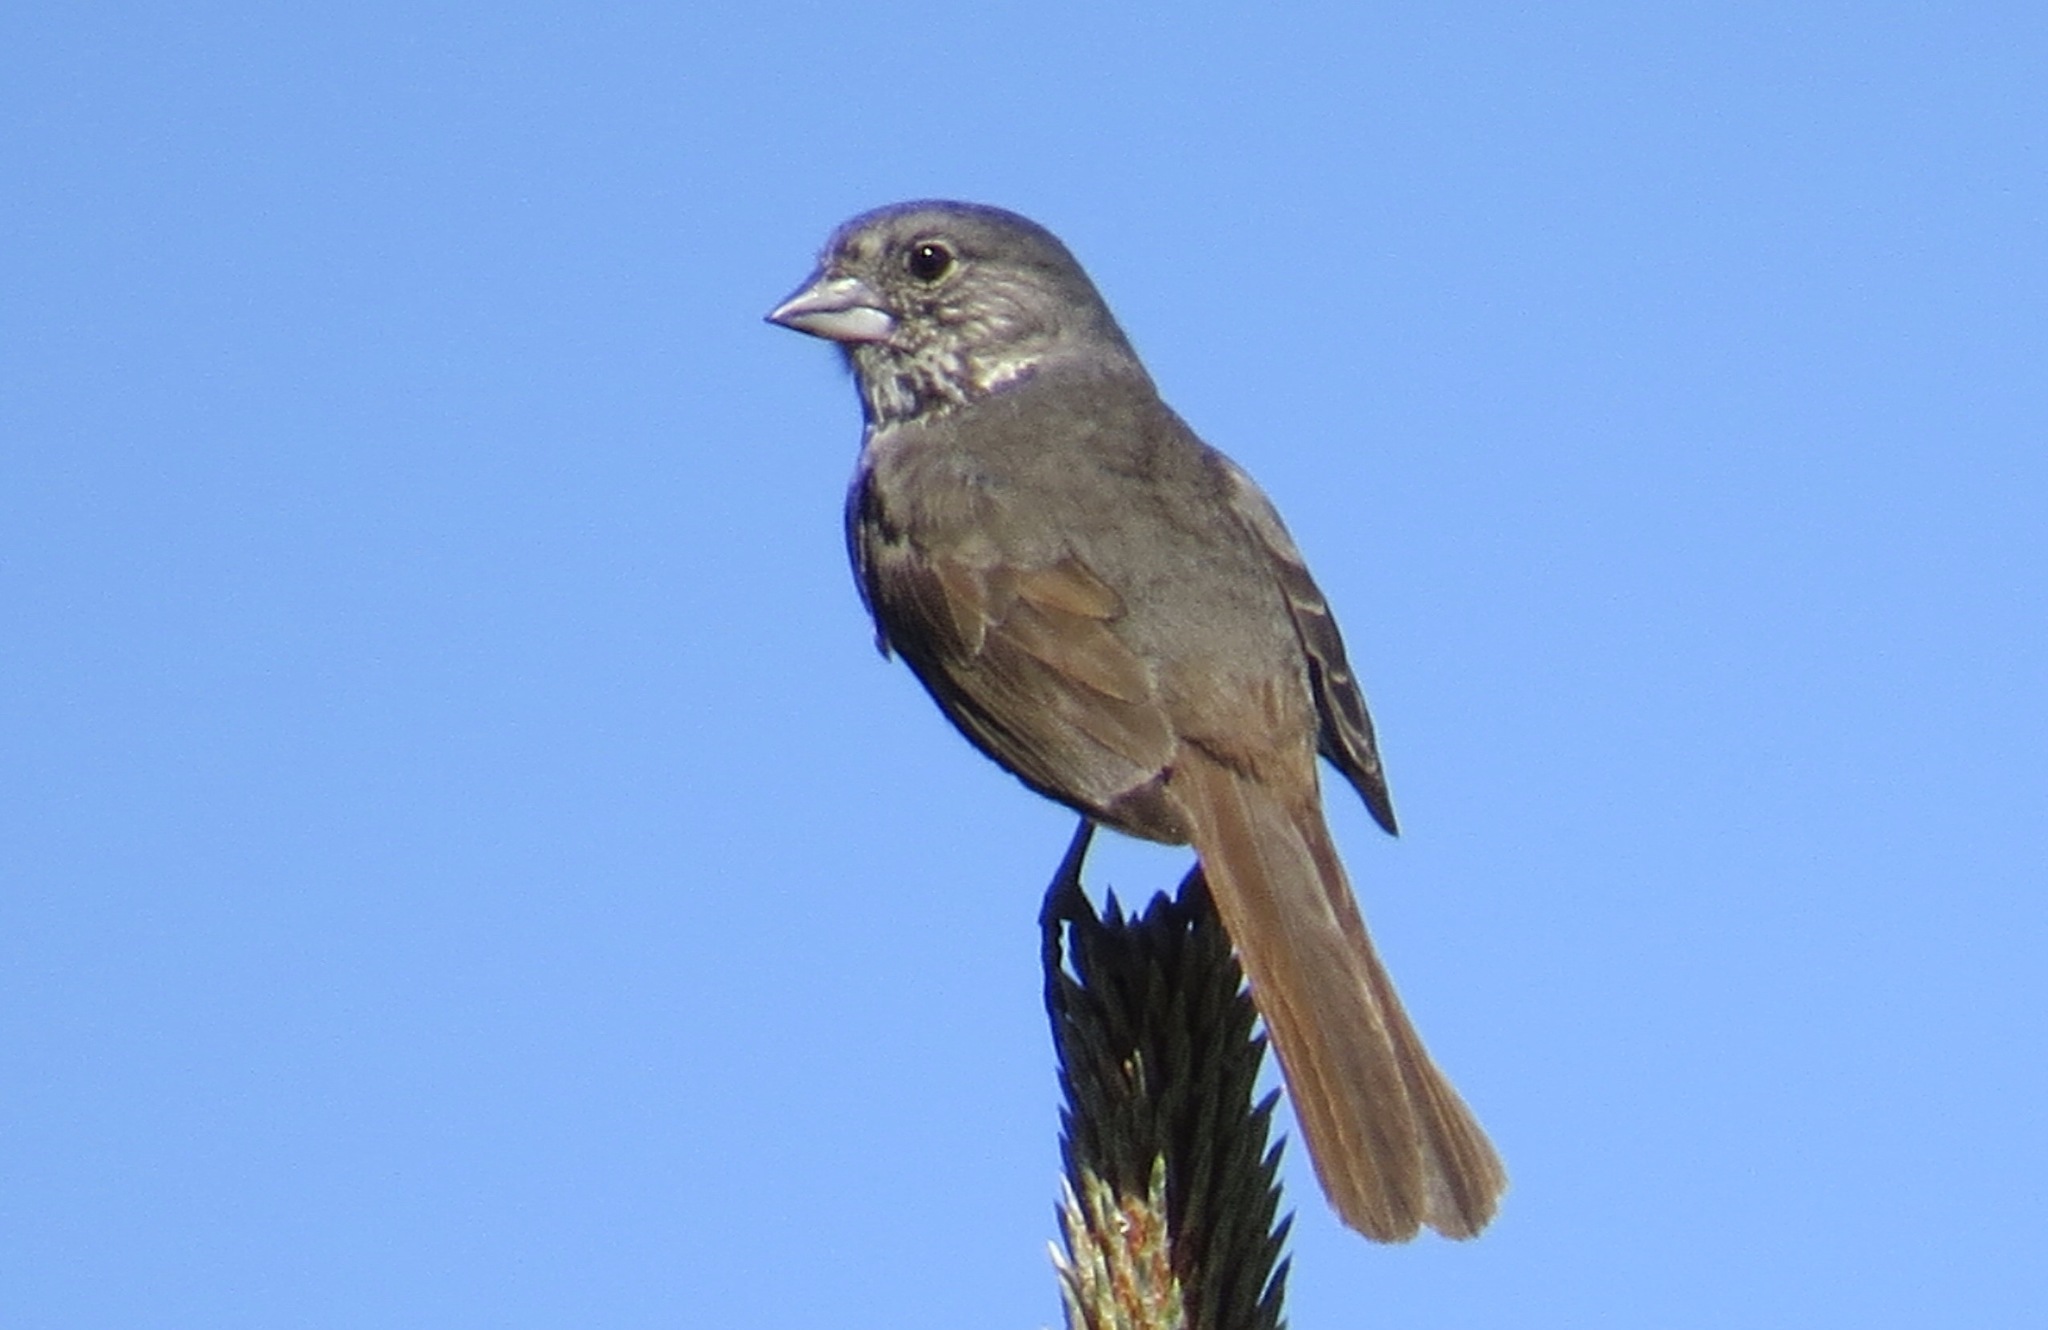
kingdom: Animalia
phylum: Chordata
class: Aves
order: Passeriformes
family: Passerellidae
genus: Passerella
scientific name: Passerella megarhyncha
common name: Thick-billed fox sparrow
